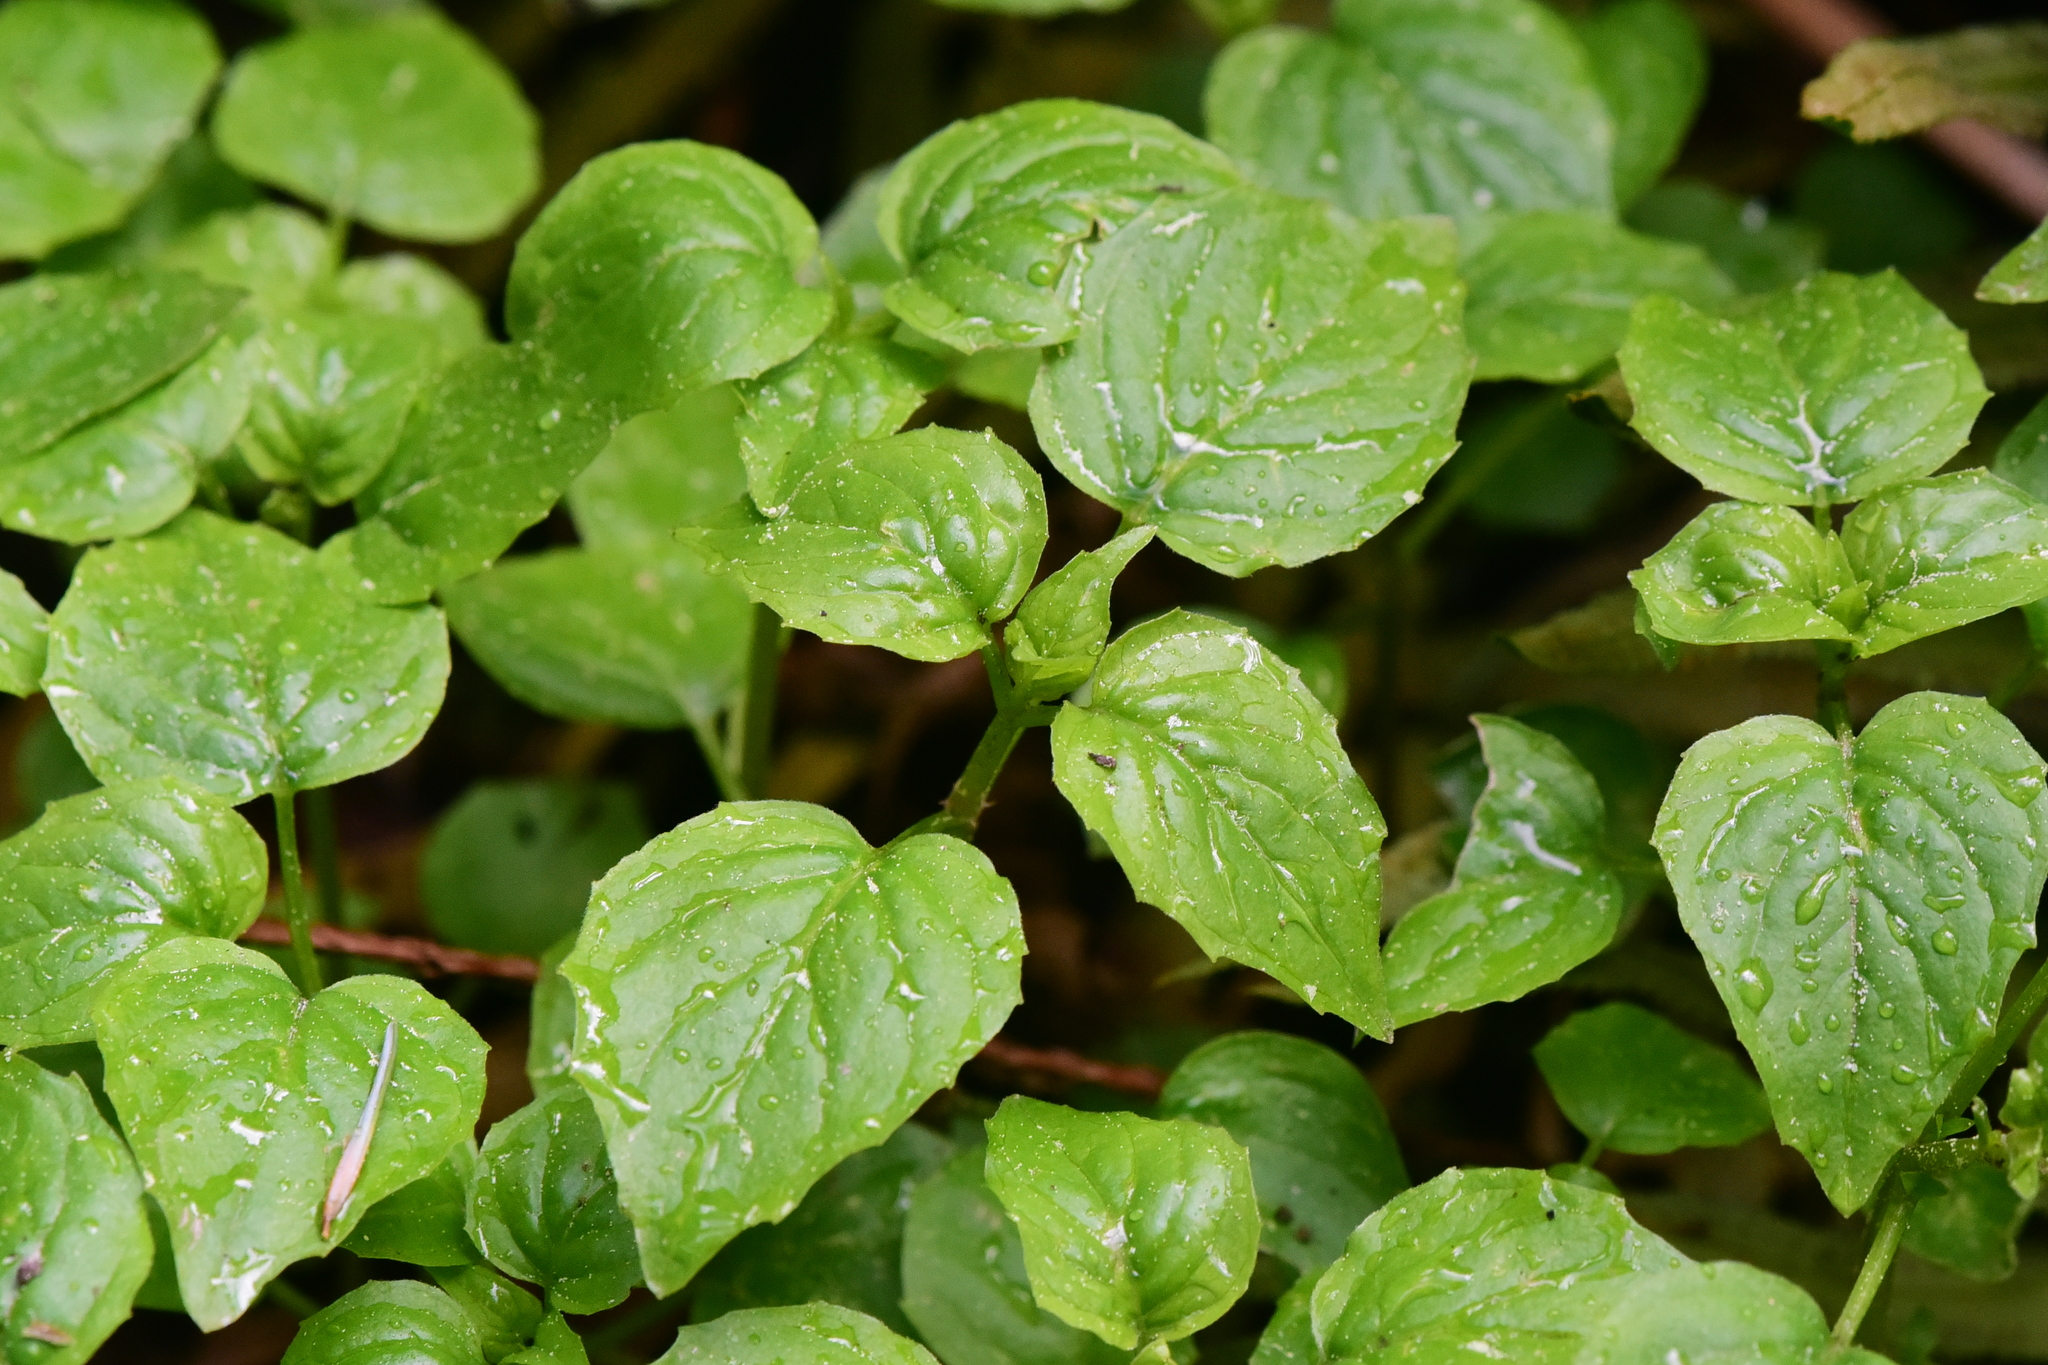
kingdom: Plantae
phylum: Tracheophyta
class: Magnoliopsida
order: Myrtales
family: Onagraceae
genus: Circaea
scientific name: Circaea alpina
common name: Alpine enchanter's-nightshade
